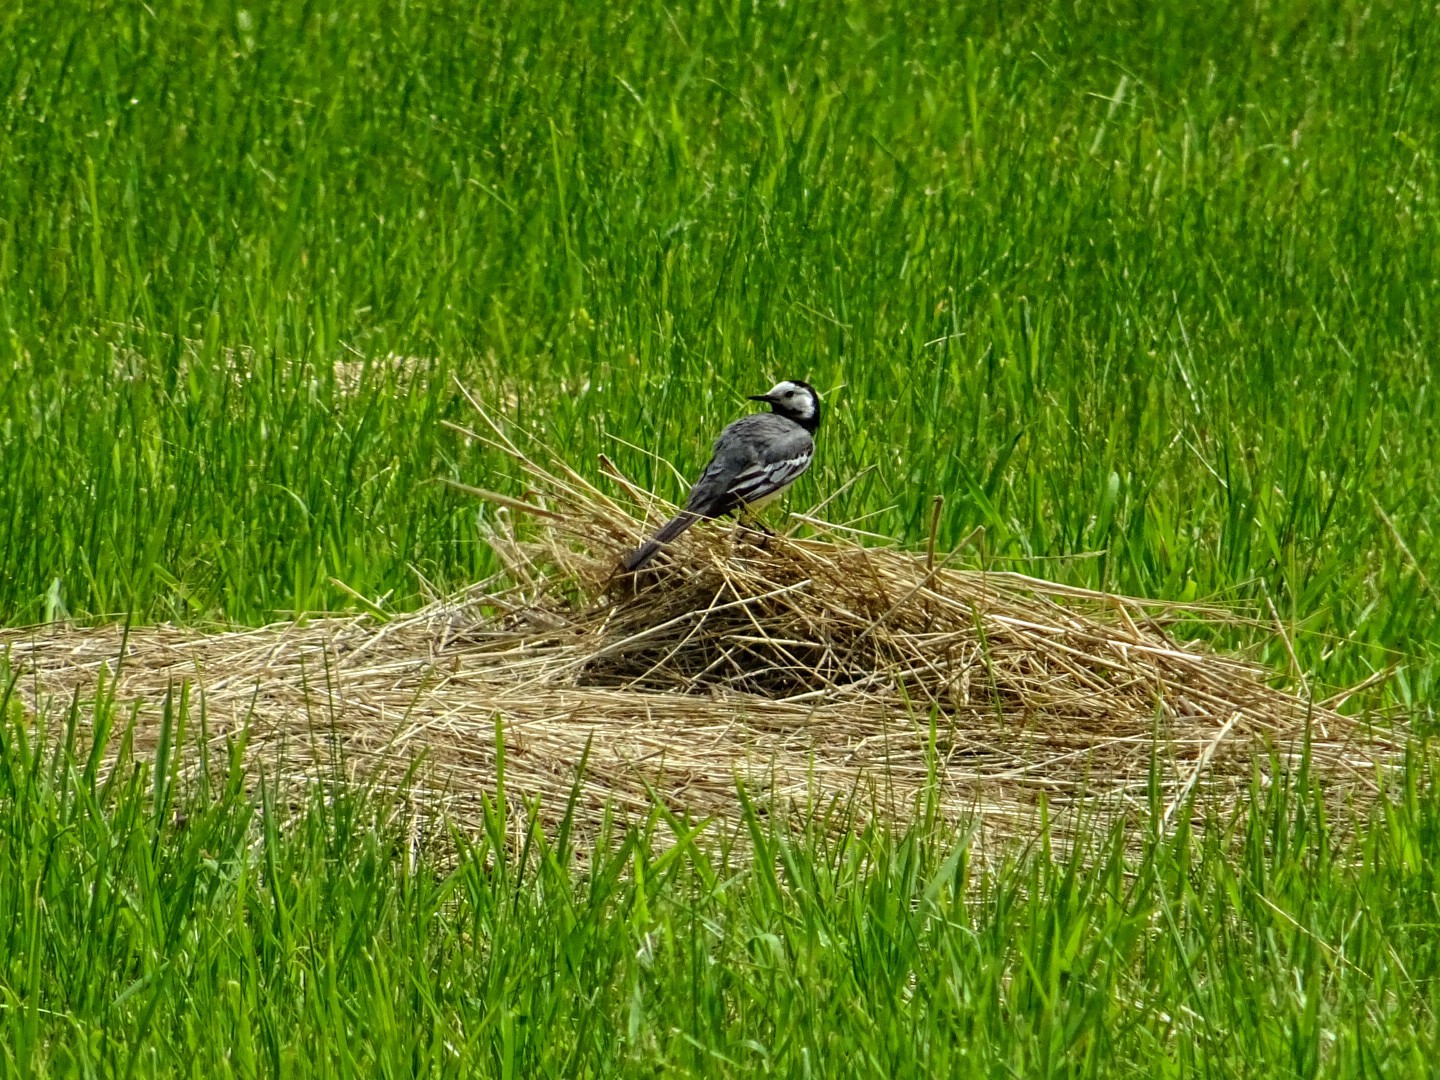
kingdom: Animalia
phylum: Chordata
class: Aves
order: Passeriformes
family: Motacillidae
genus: Motacilla
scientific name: Motacilla alba
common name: White wagtail
